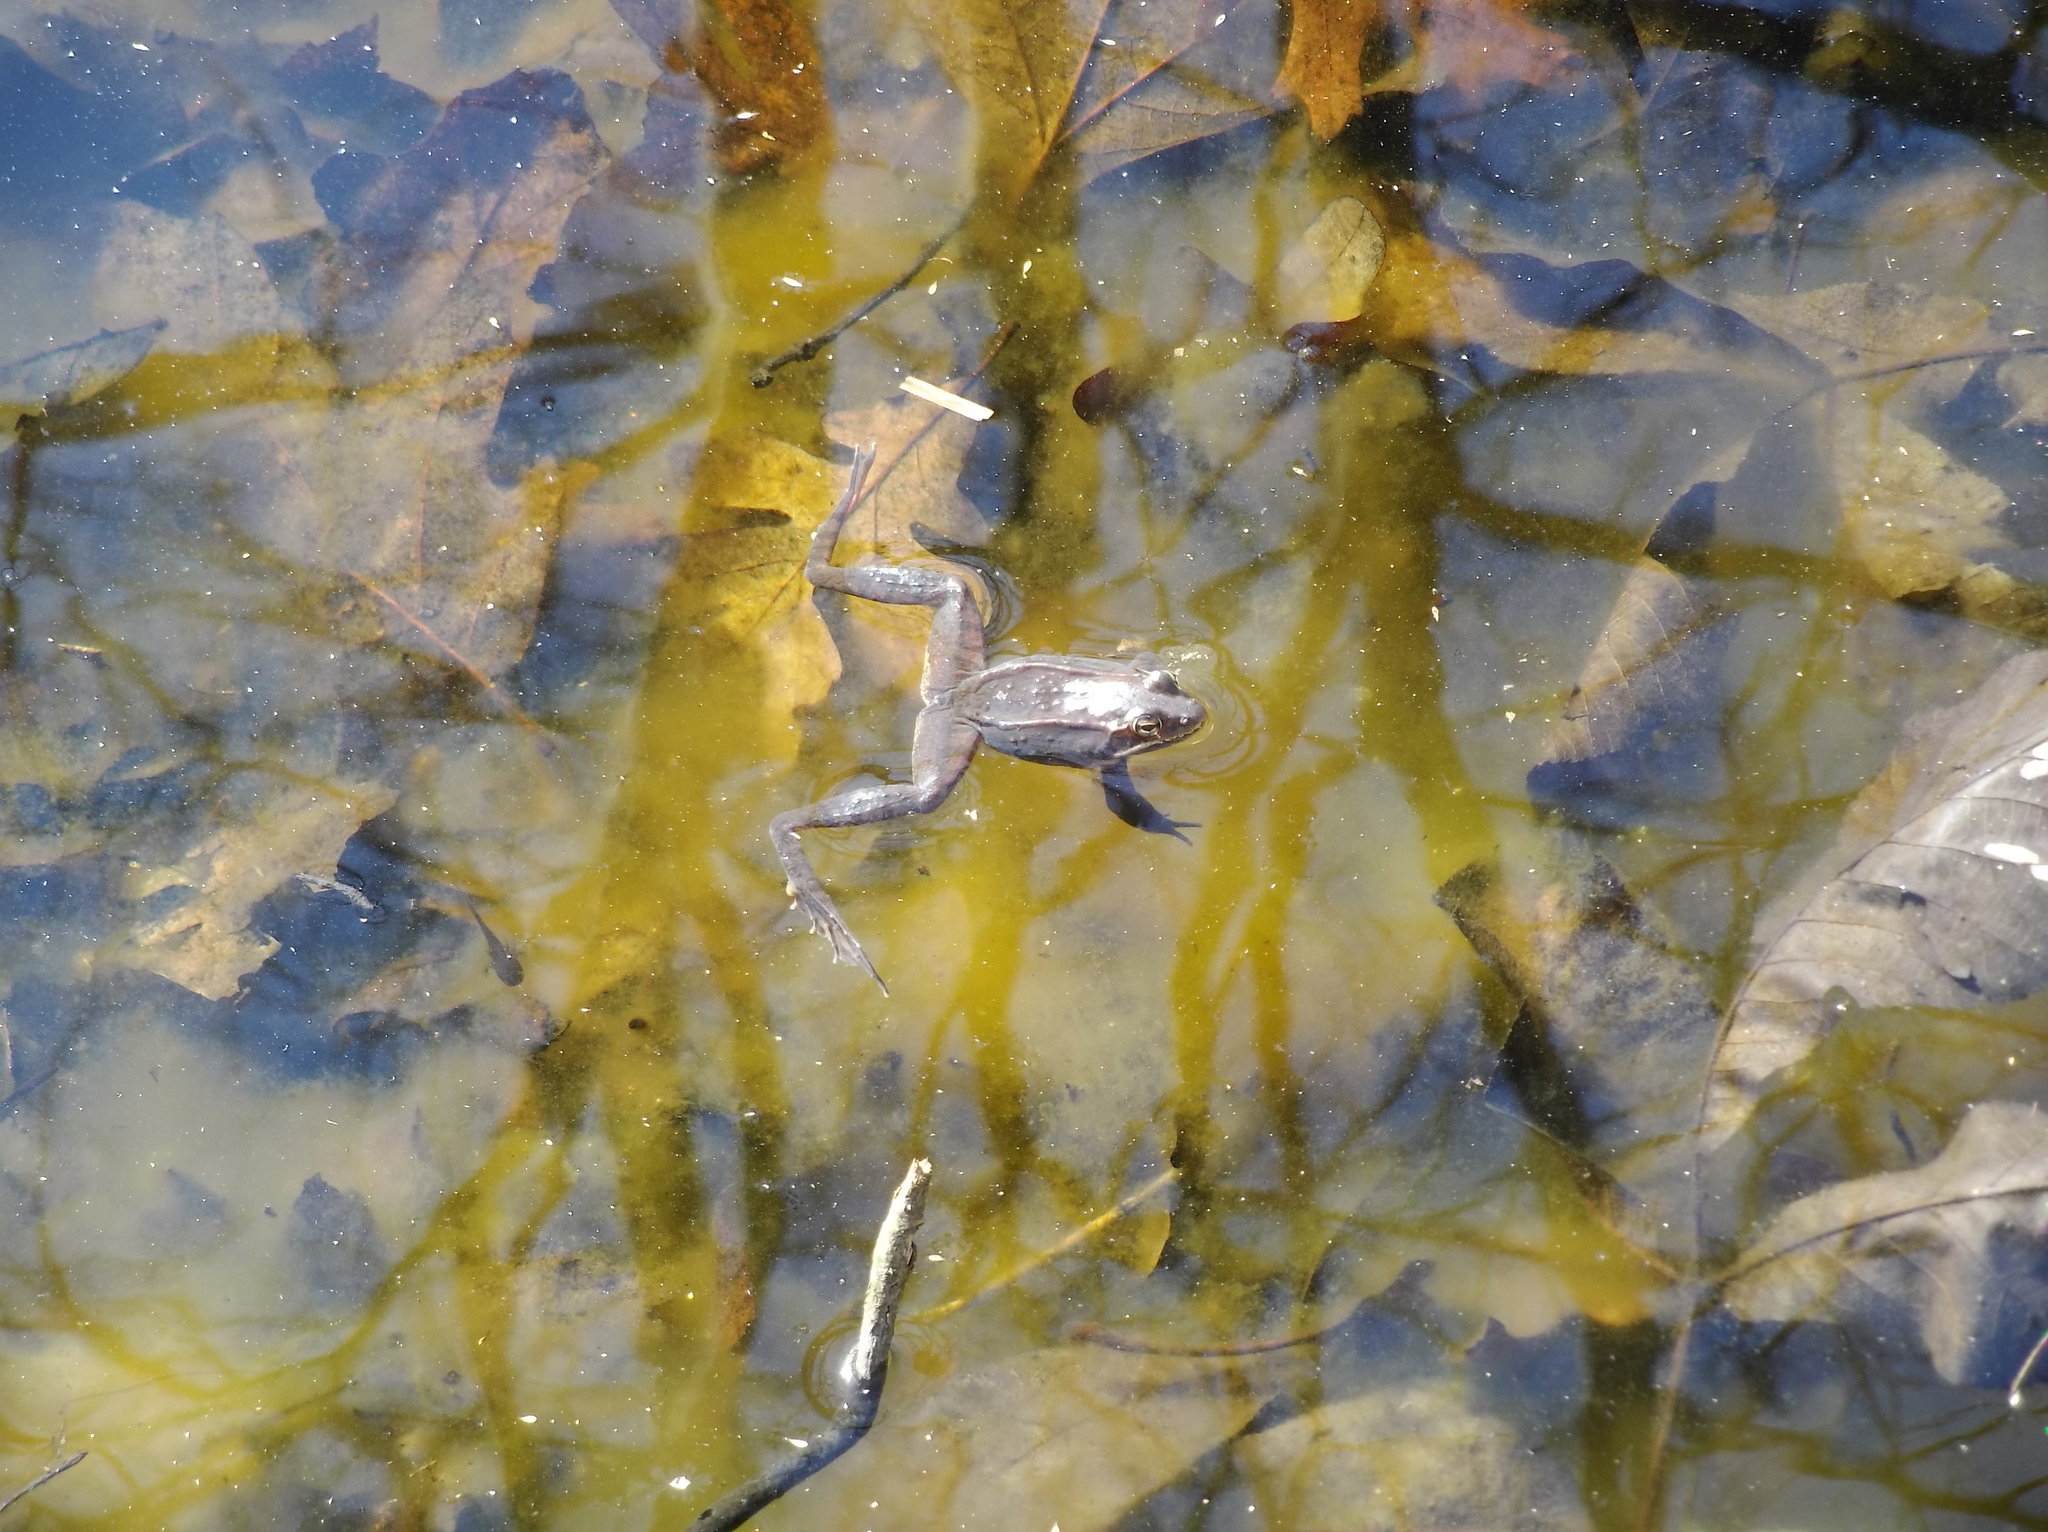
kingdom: Animalia
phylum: Chordata
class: Amphibia
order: Anura
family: Ranidae
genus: Lithobates
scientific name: Lithobates sylvaticus
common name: Wood frog
